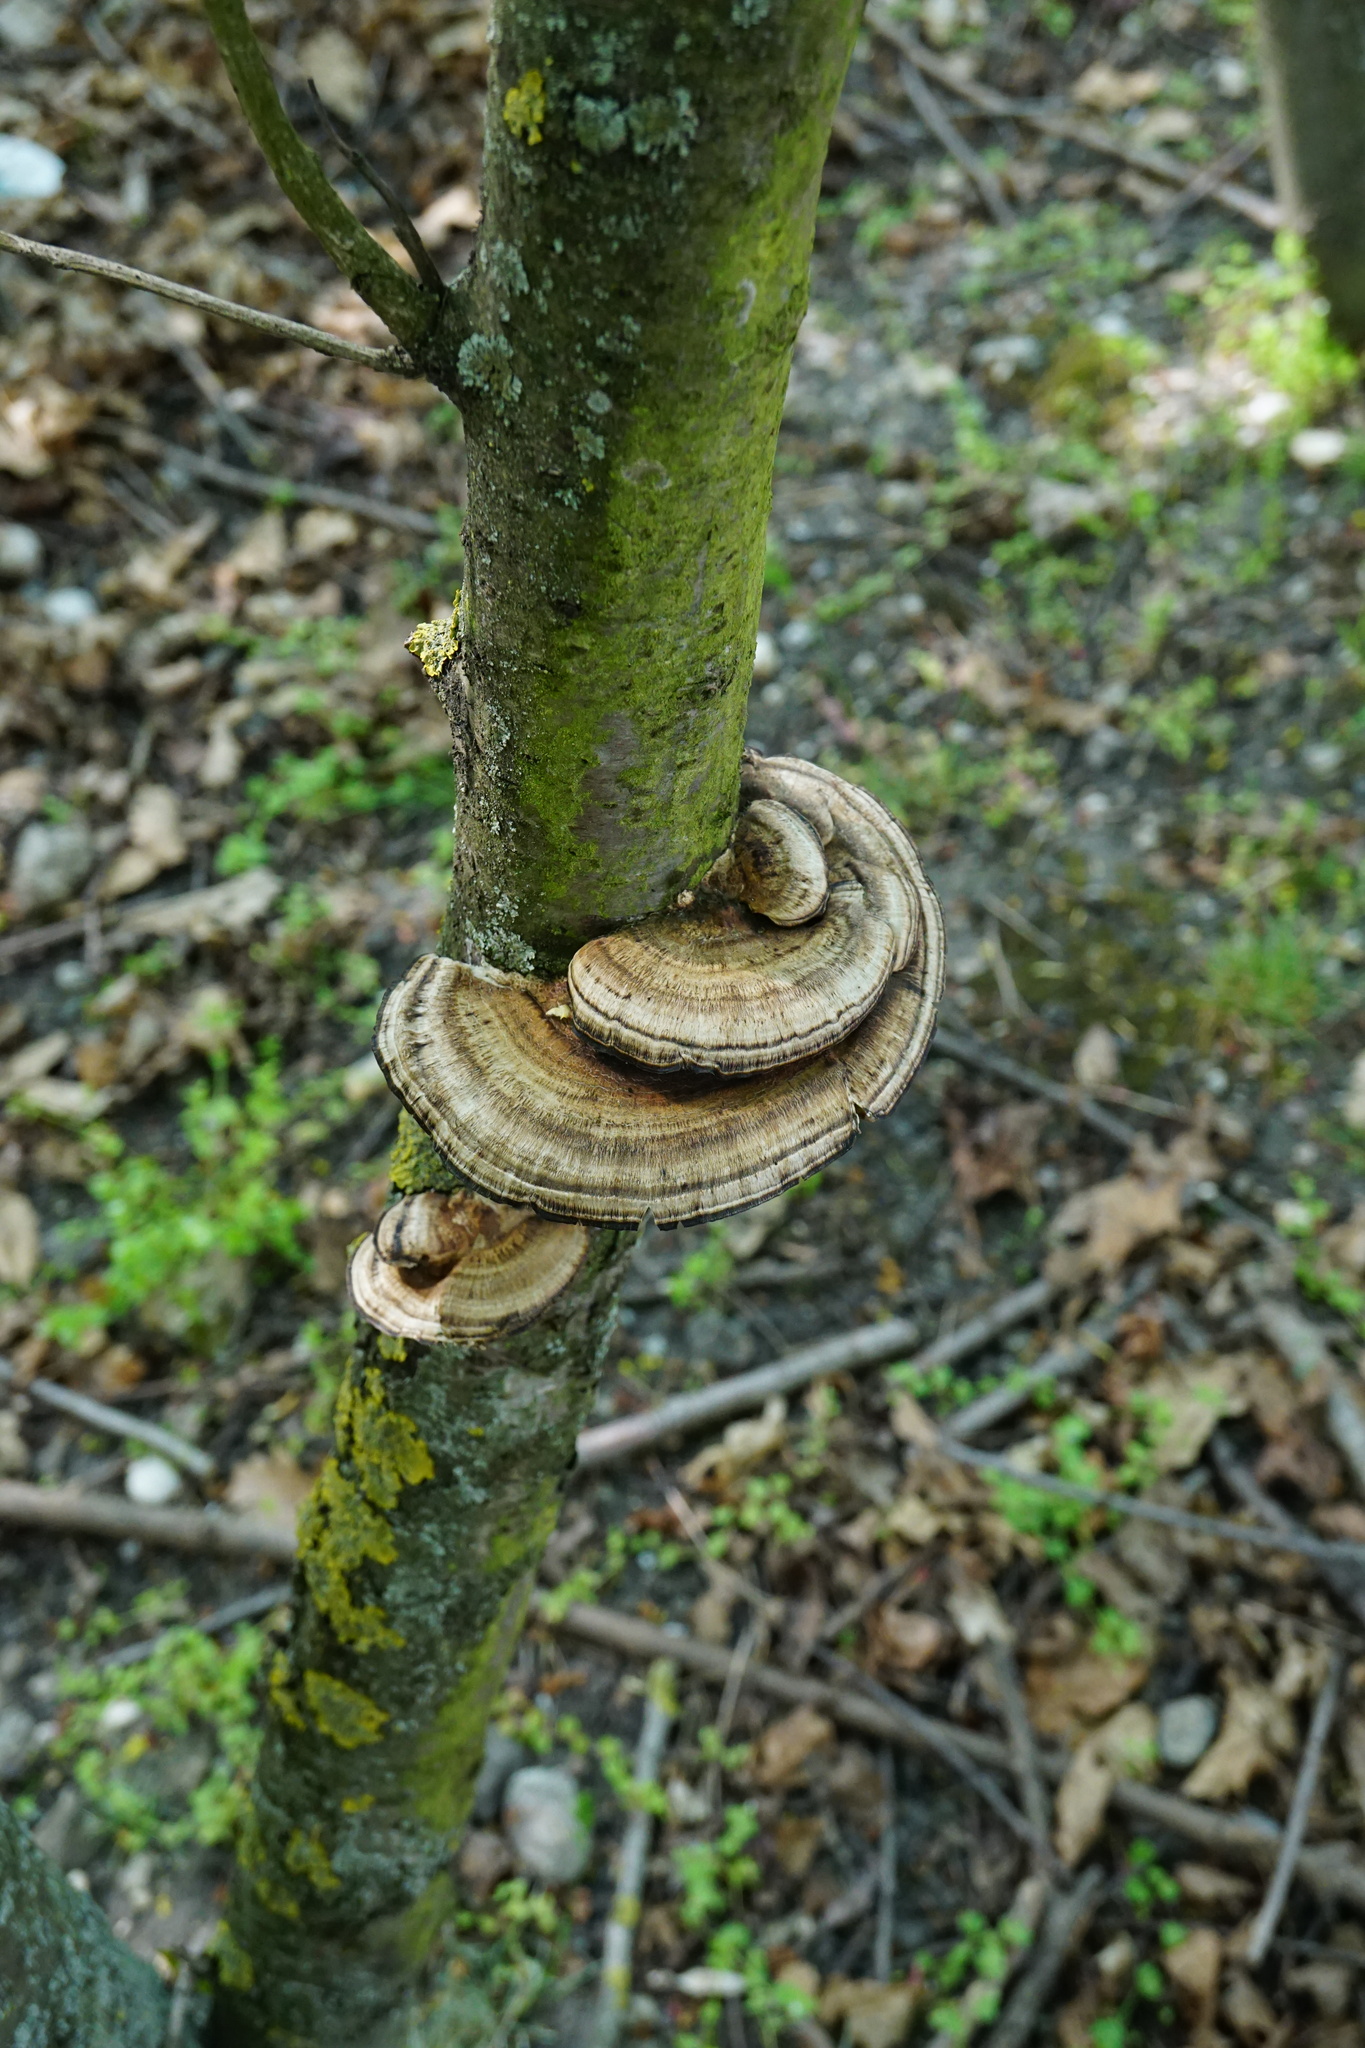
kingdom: Fungi
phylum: Basidiomycota
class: Agaricomycetes
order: Polyporales
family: Polyporaceae
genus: Daedaleopsis
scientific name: Daedaleopsis confragosa
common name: Blushing bracket
